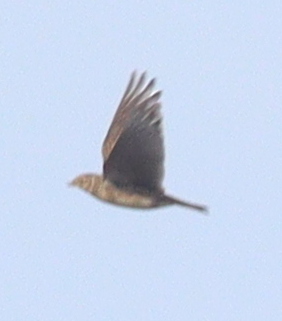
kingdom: Animalia
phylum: Chordata
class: Aves
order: Passeriformes
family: Alaudidae
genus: Alauda
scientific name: Alauda arvensis
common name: Eurasian skylark
